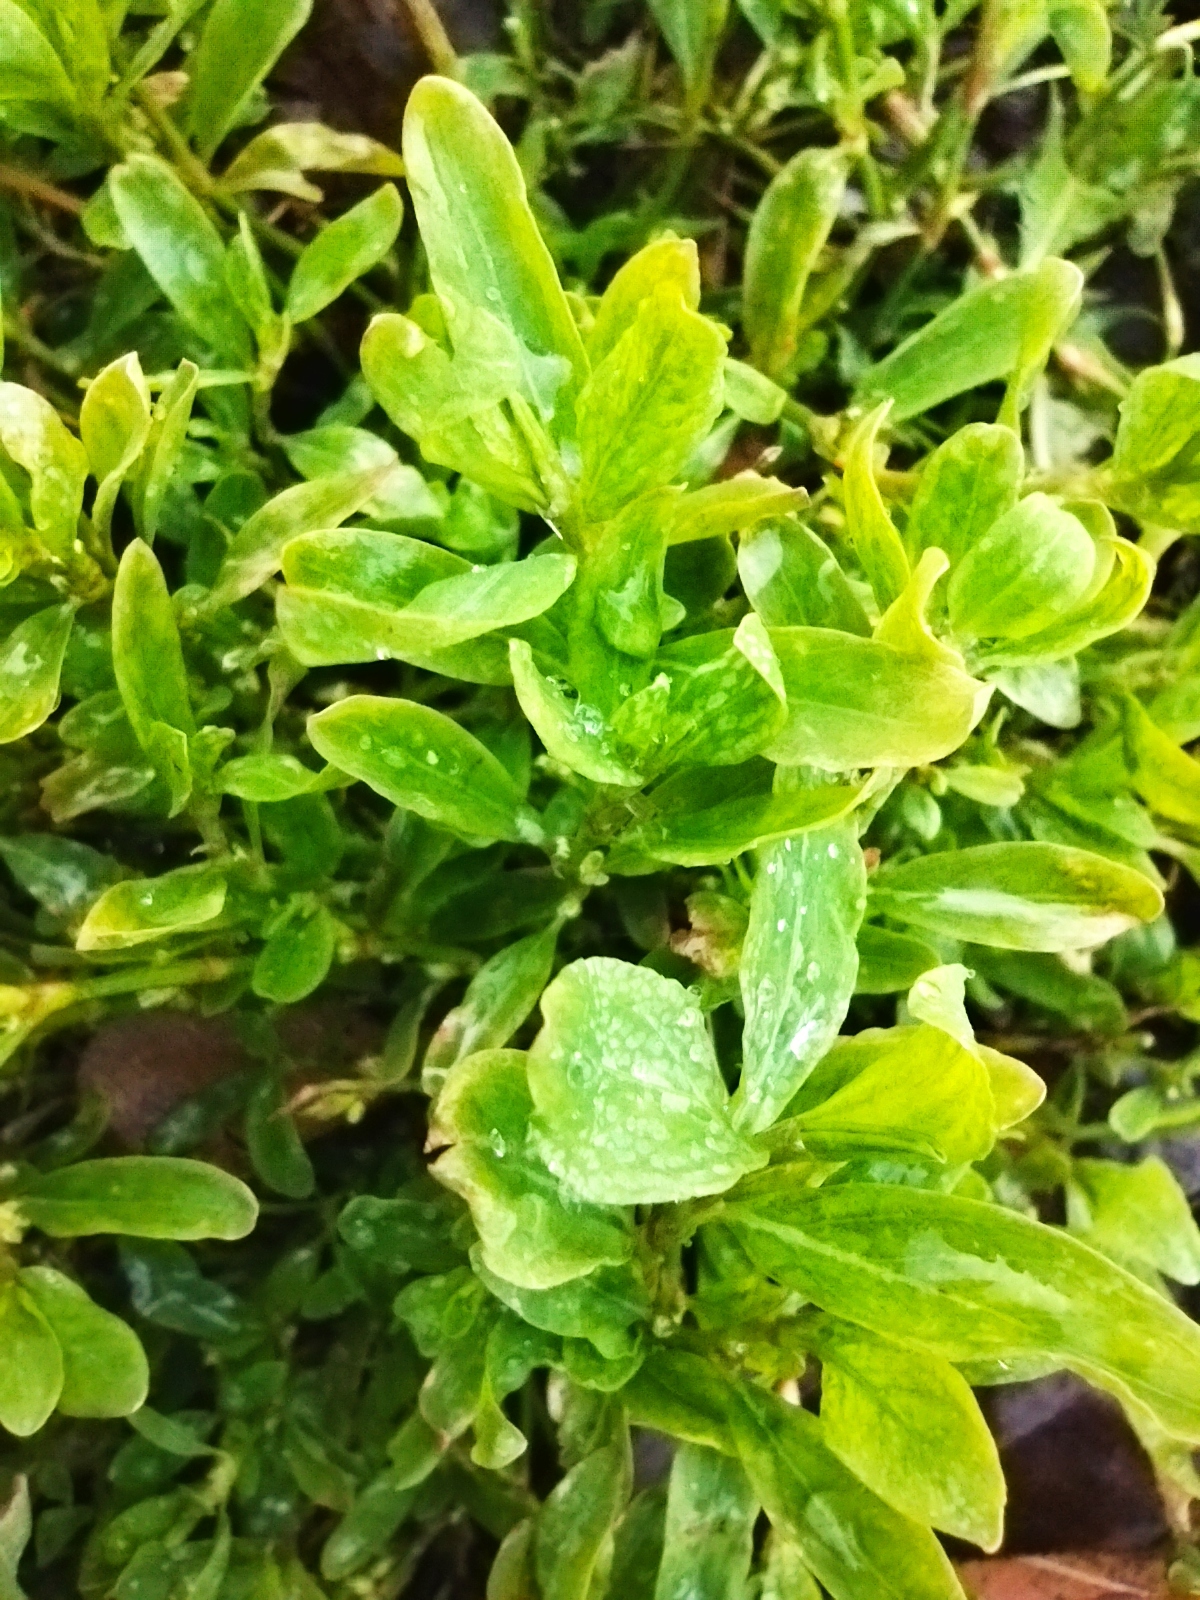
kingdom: Plantae
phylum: Tracheophyta
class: Magnoliopsida
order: Caryophyllales
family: Polygonaceae
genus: Polygonum
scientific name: Polygonum
